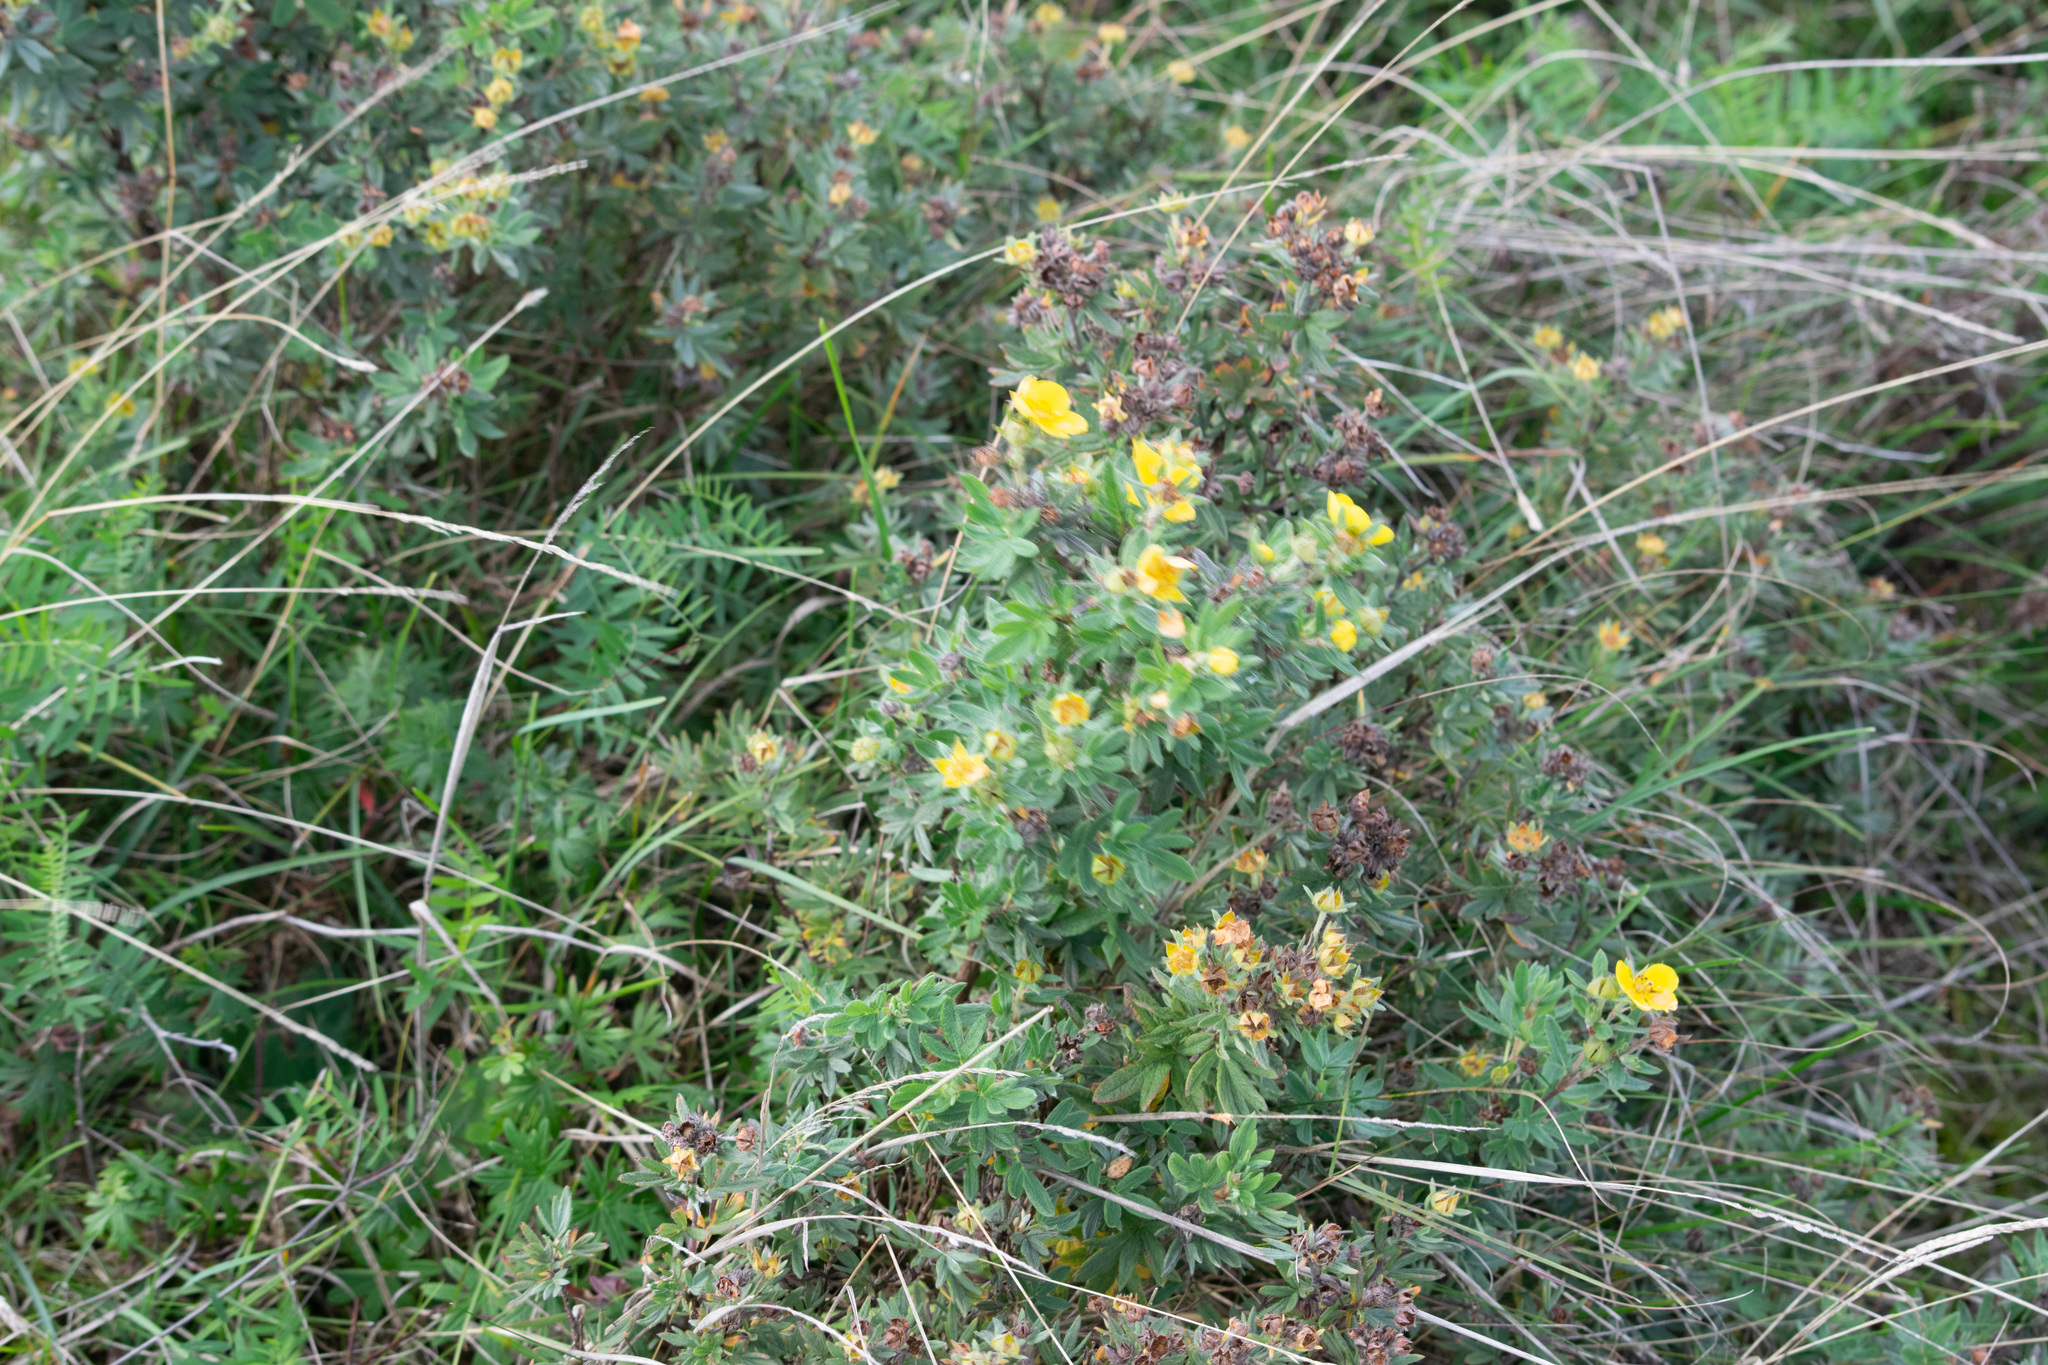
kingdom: Plantae
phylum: Tracheophyta
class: Magnoliopsida
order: Rosales
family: Rosaceae
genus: Dasiphora
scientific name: Dasiphora fruticosa
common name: Shrubby cinquefoil
